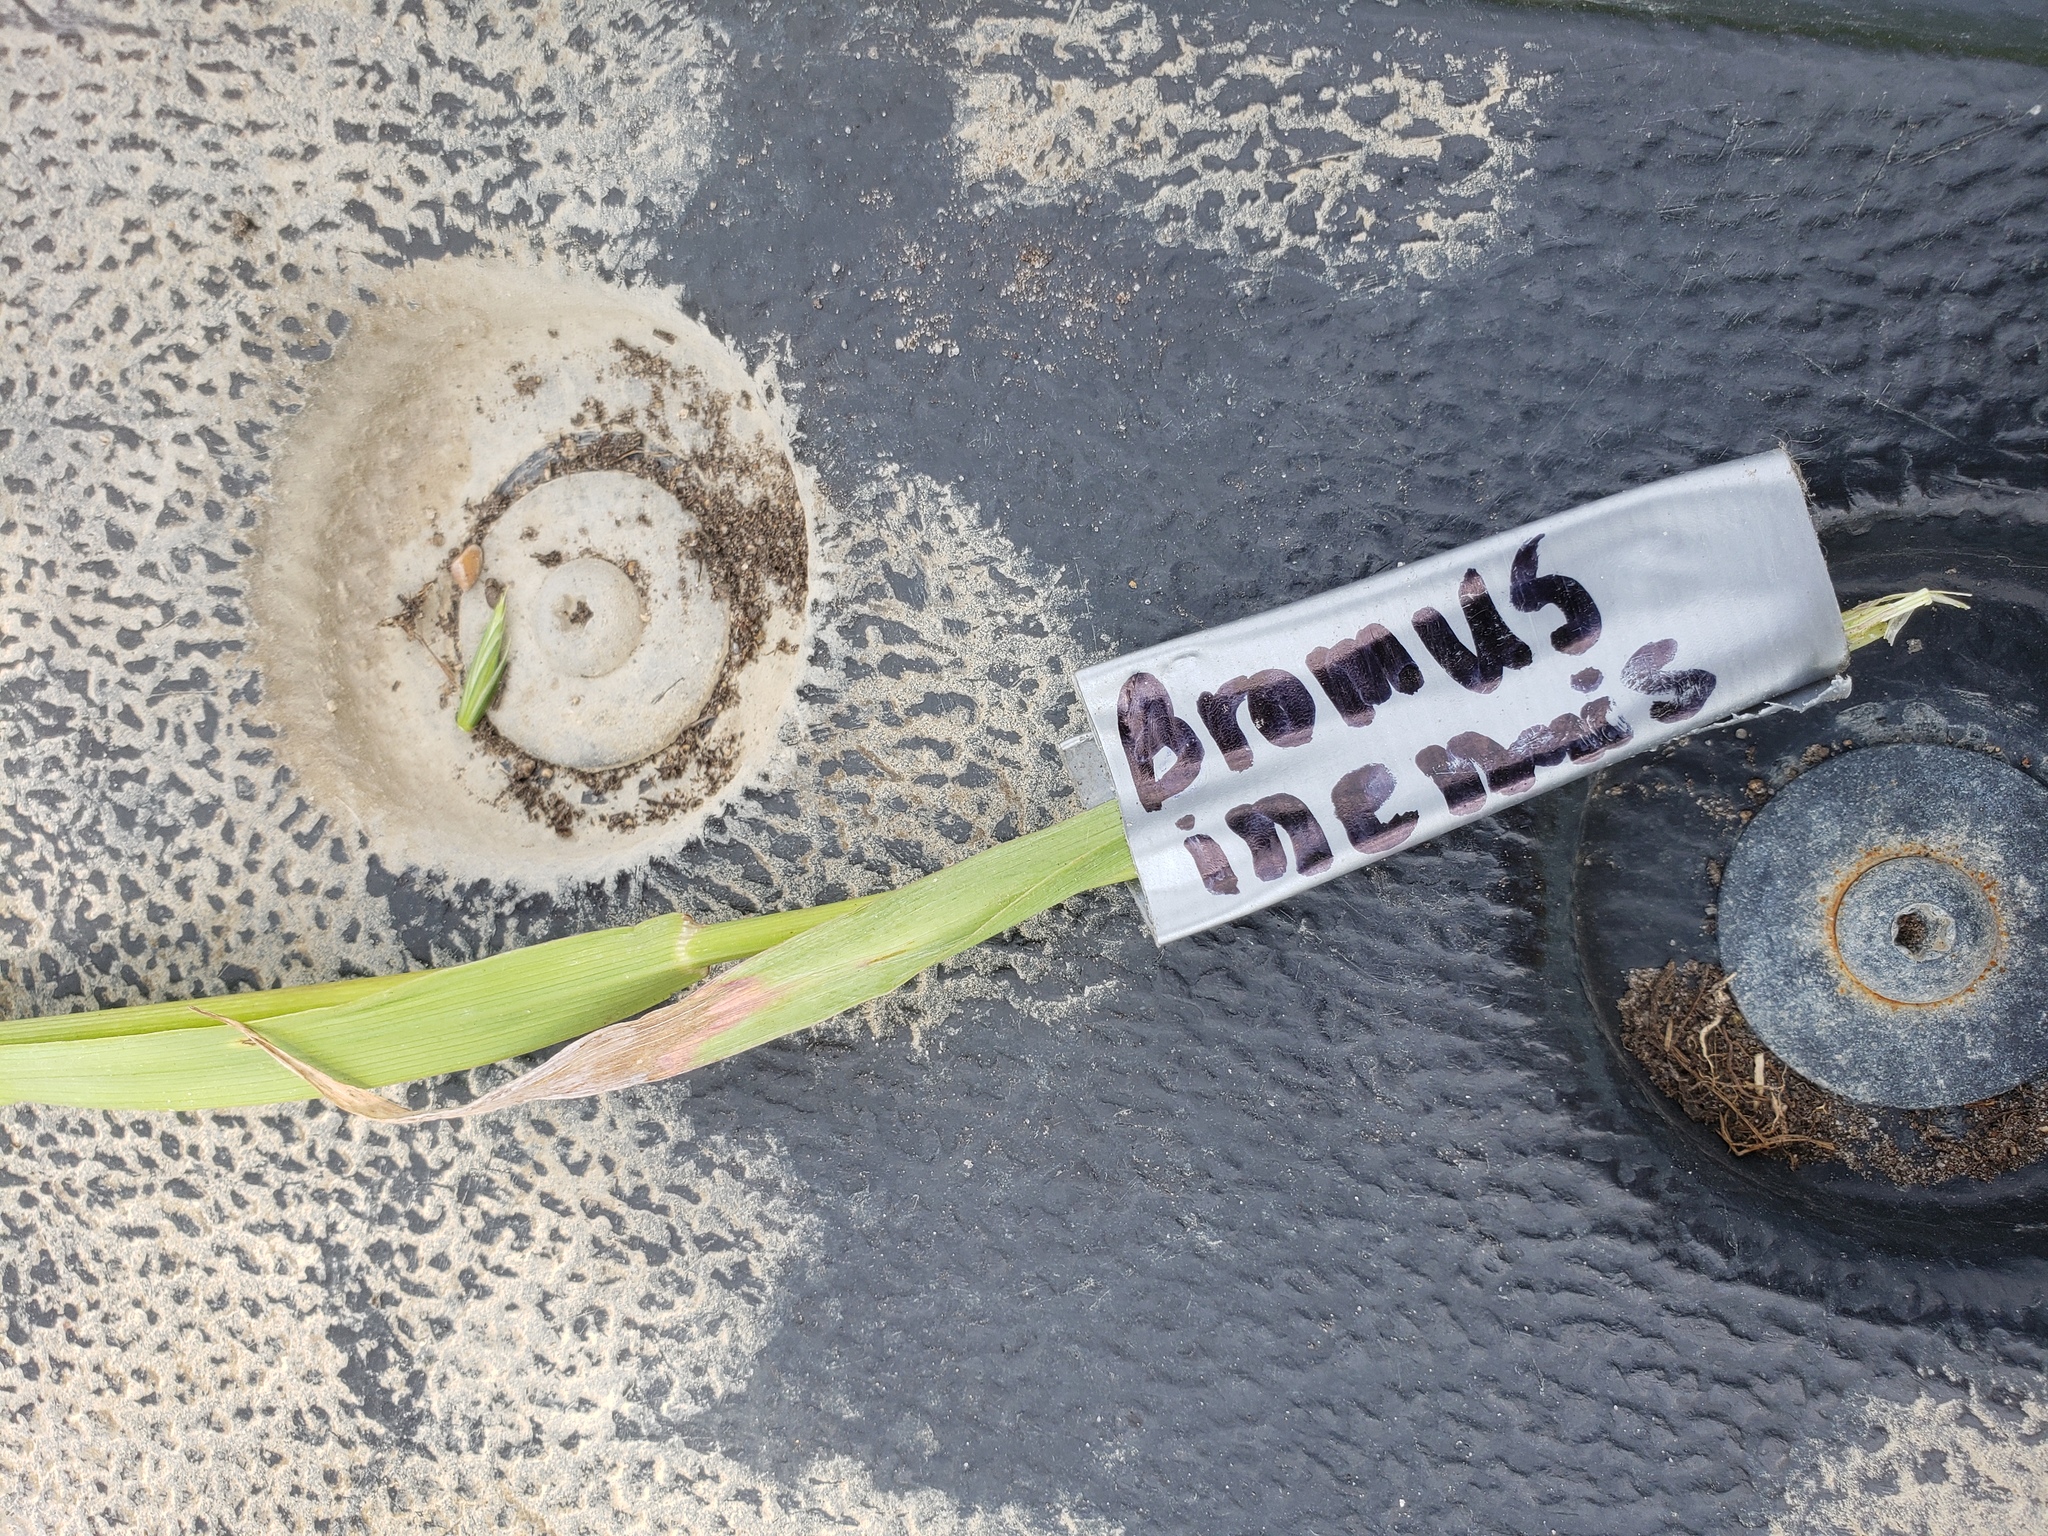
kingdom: Plantae
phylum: Tracheophyta
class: Liliopsida
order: Poales
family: Poaceae
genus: Bromus
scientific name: Bromus inermis
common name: Smooth brome
